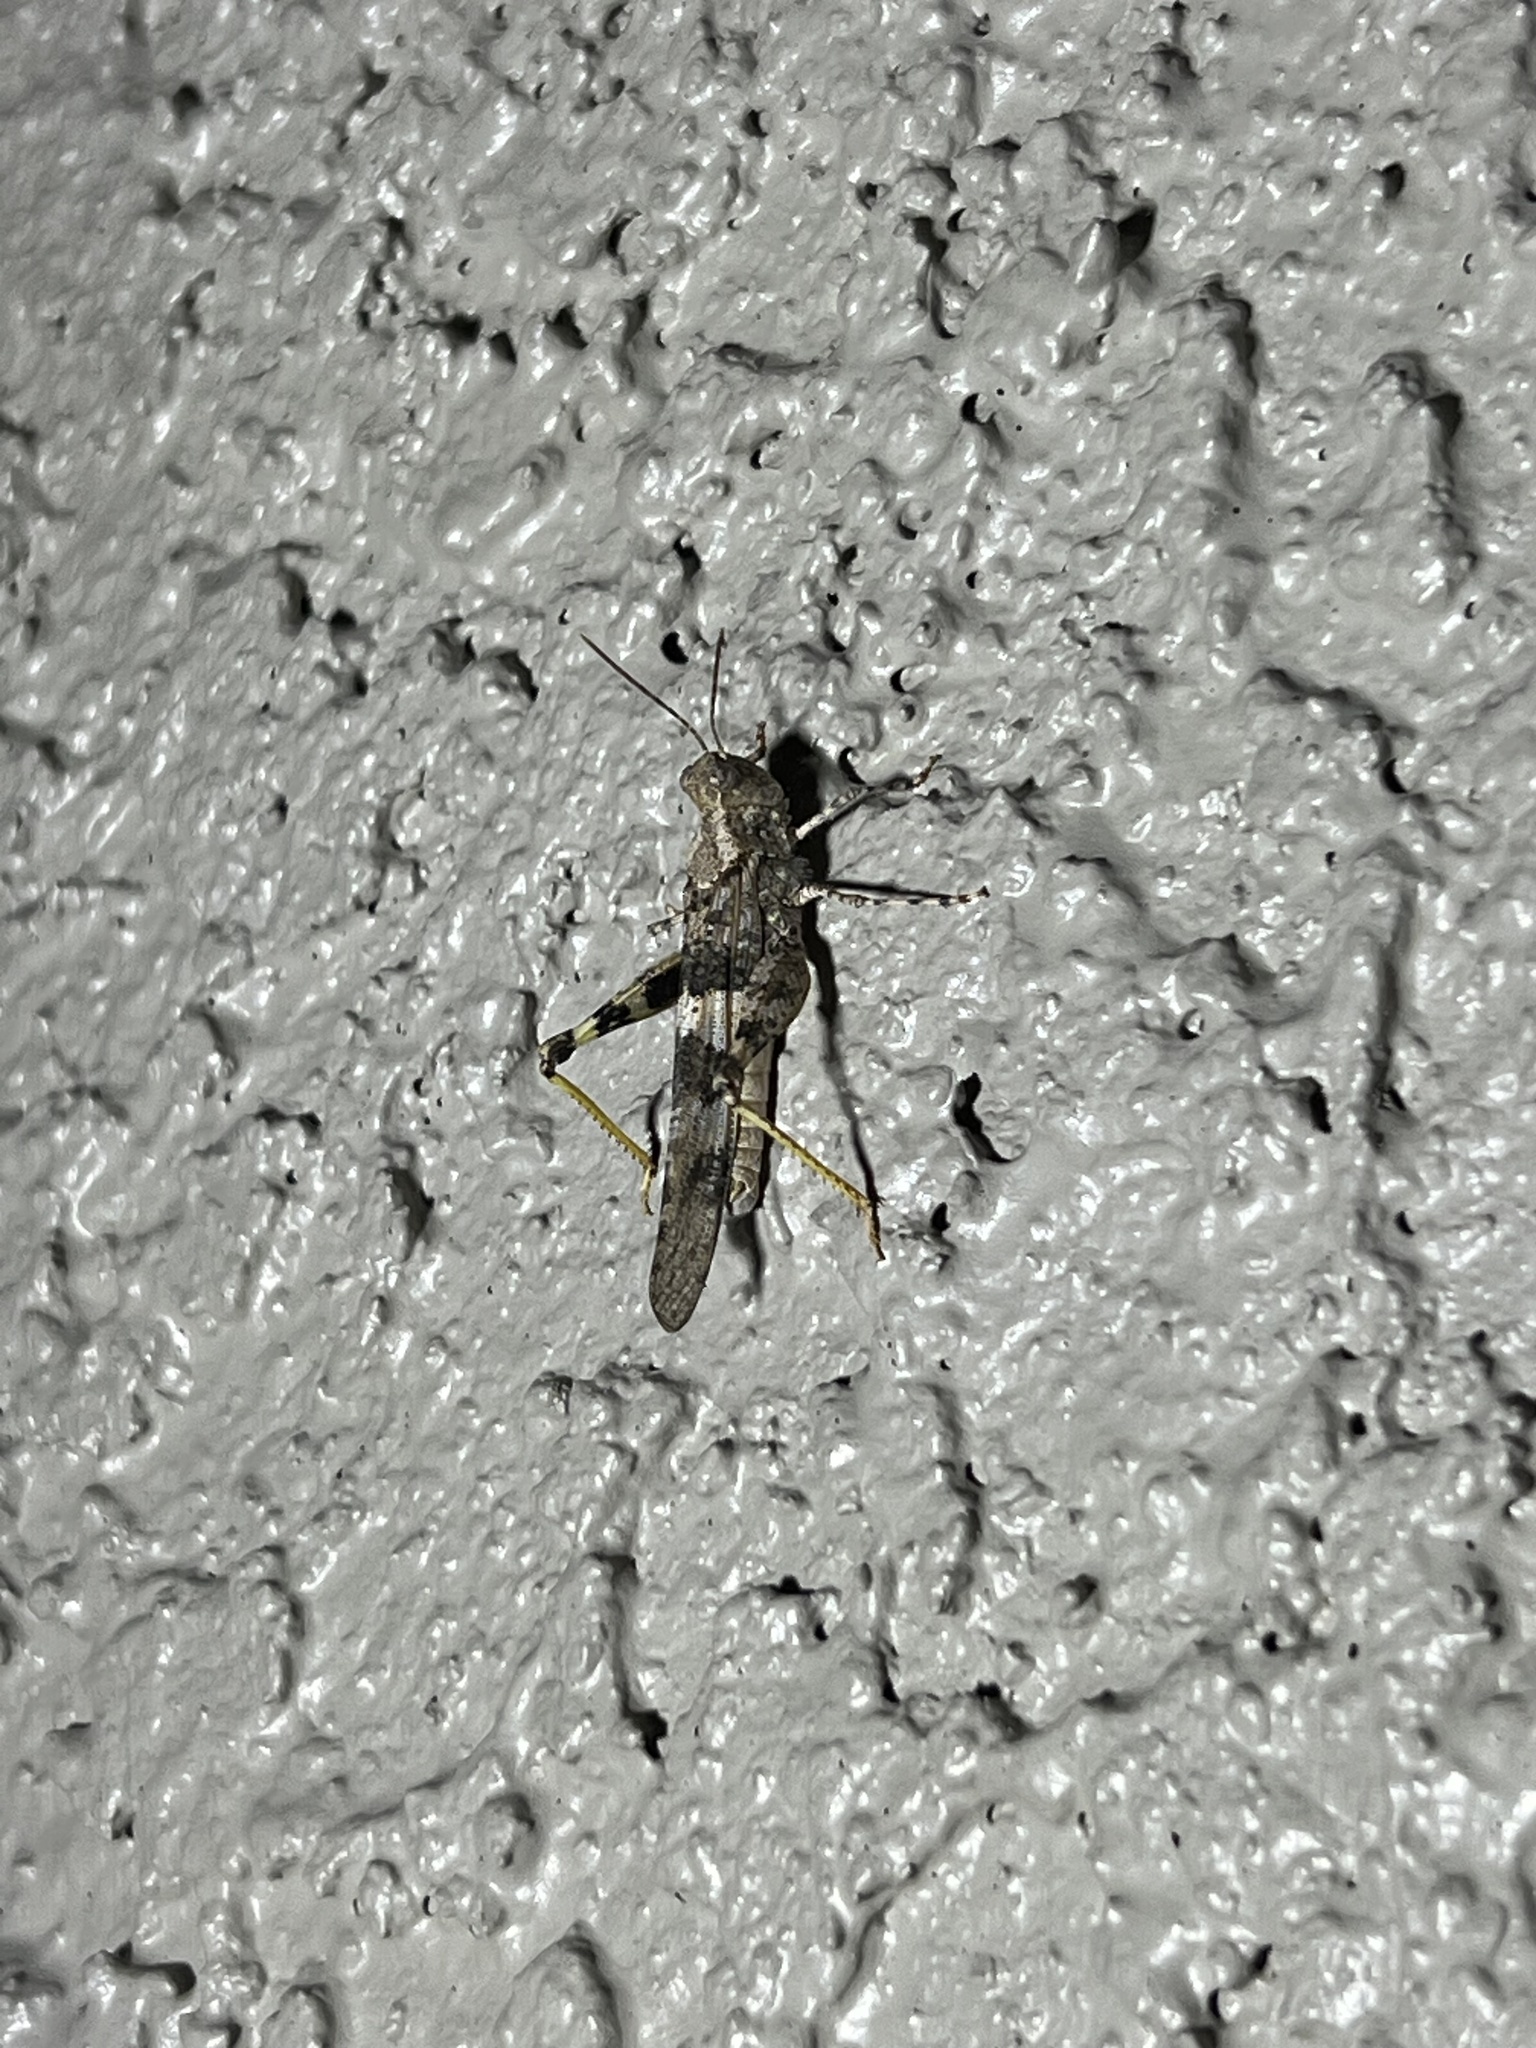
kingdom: Animalia
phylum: Arthropoda
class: Insecta
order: Orthoptera
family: Acrididae
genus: Trimerotropis
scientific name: Trimerotropis pallidipennis
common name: Pallid-winged grasshopper
